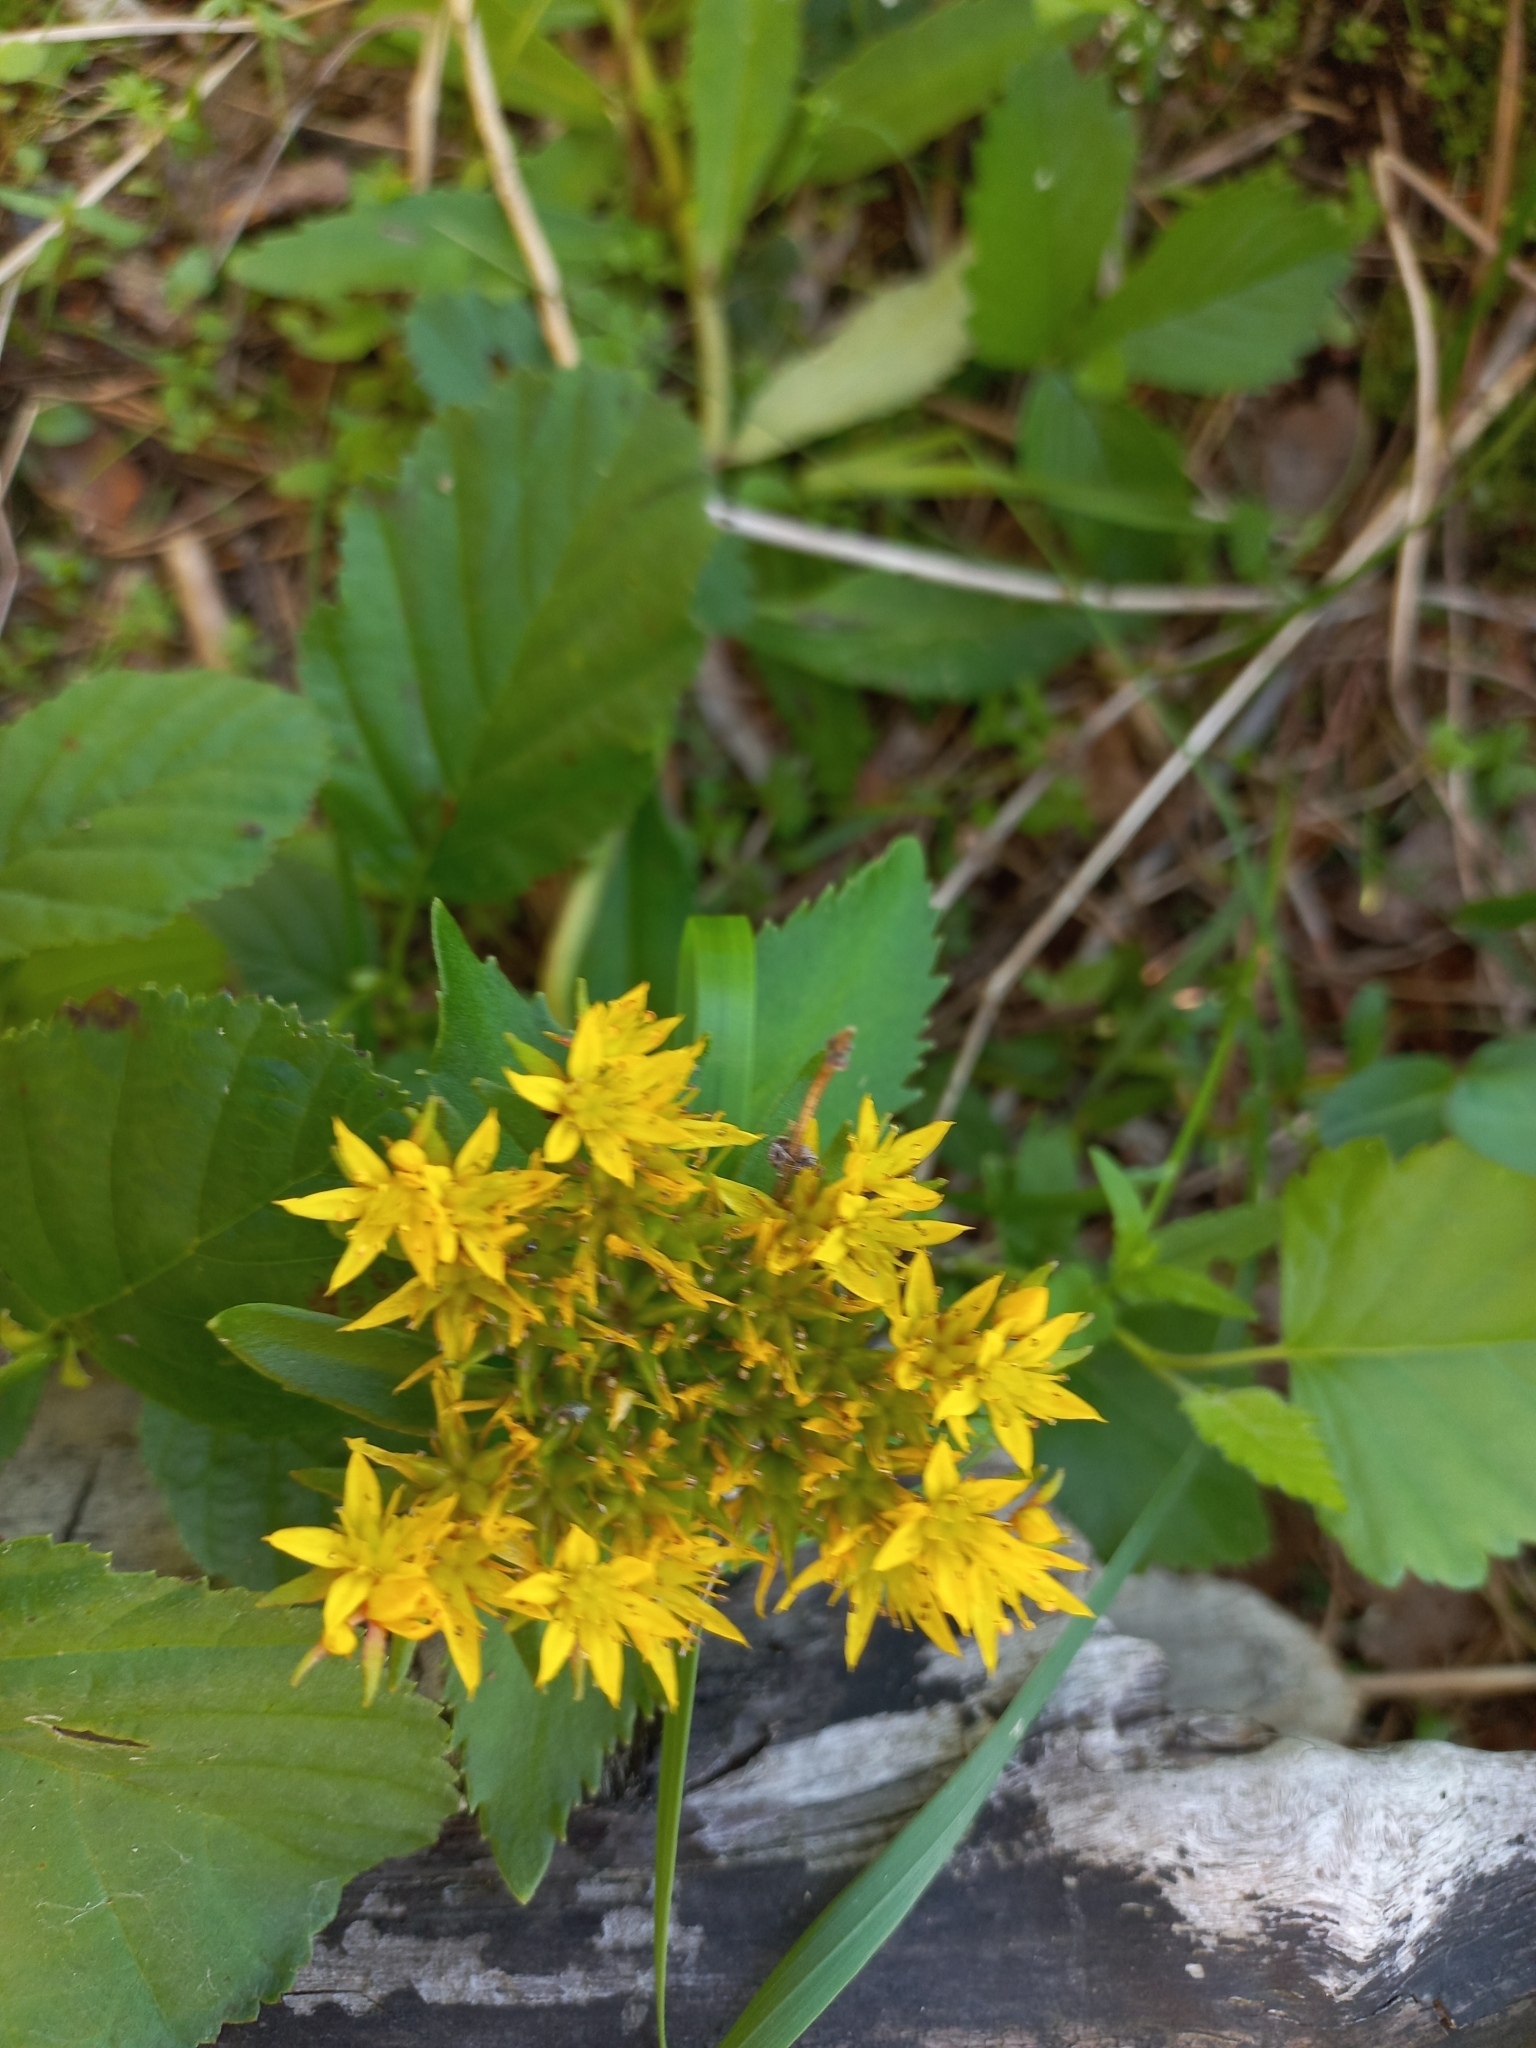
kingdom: Plantae
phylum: Tracheophyta
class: Magnoliopsida
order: Saxifragales
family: Crassulaceae
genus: Phedimus
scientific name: Phedimus aizoon
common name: Orpin aizoon
